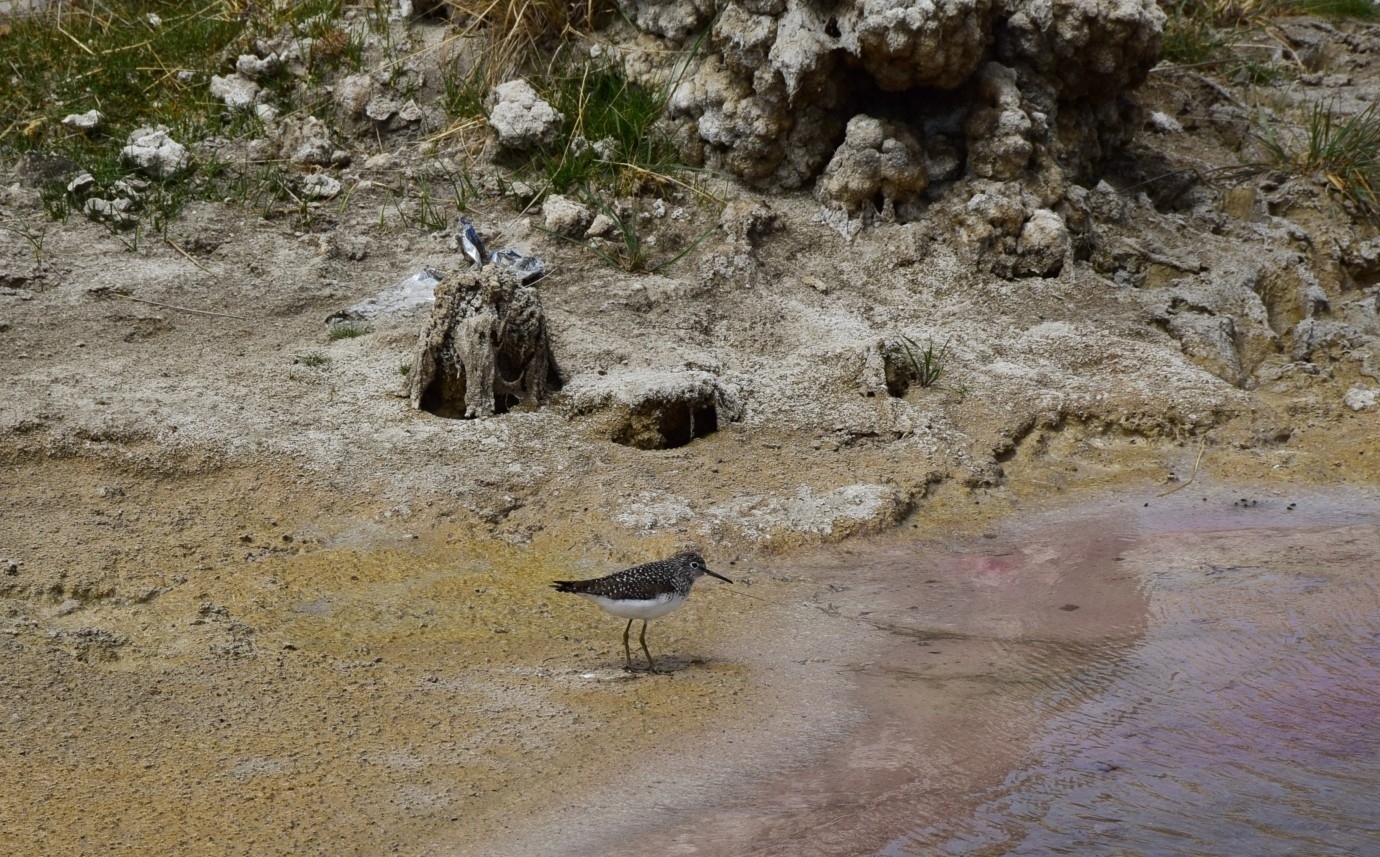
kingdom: Animalia
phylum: Chordata
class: Aves
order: Charadriiformes
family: Scolopacidae
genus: Tringa
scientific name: Tringa solitaria
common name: Solitary sandpiper
